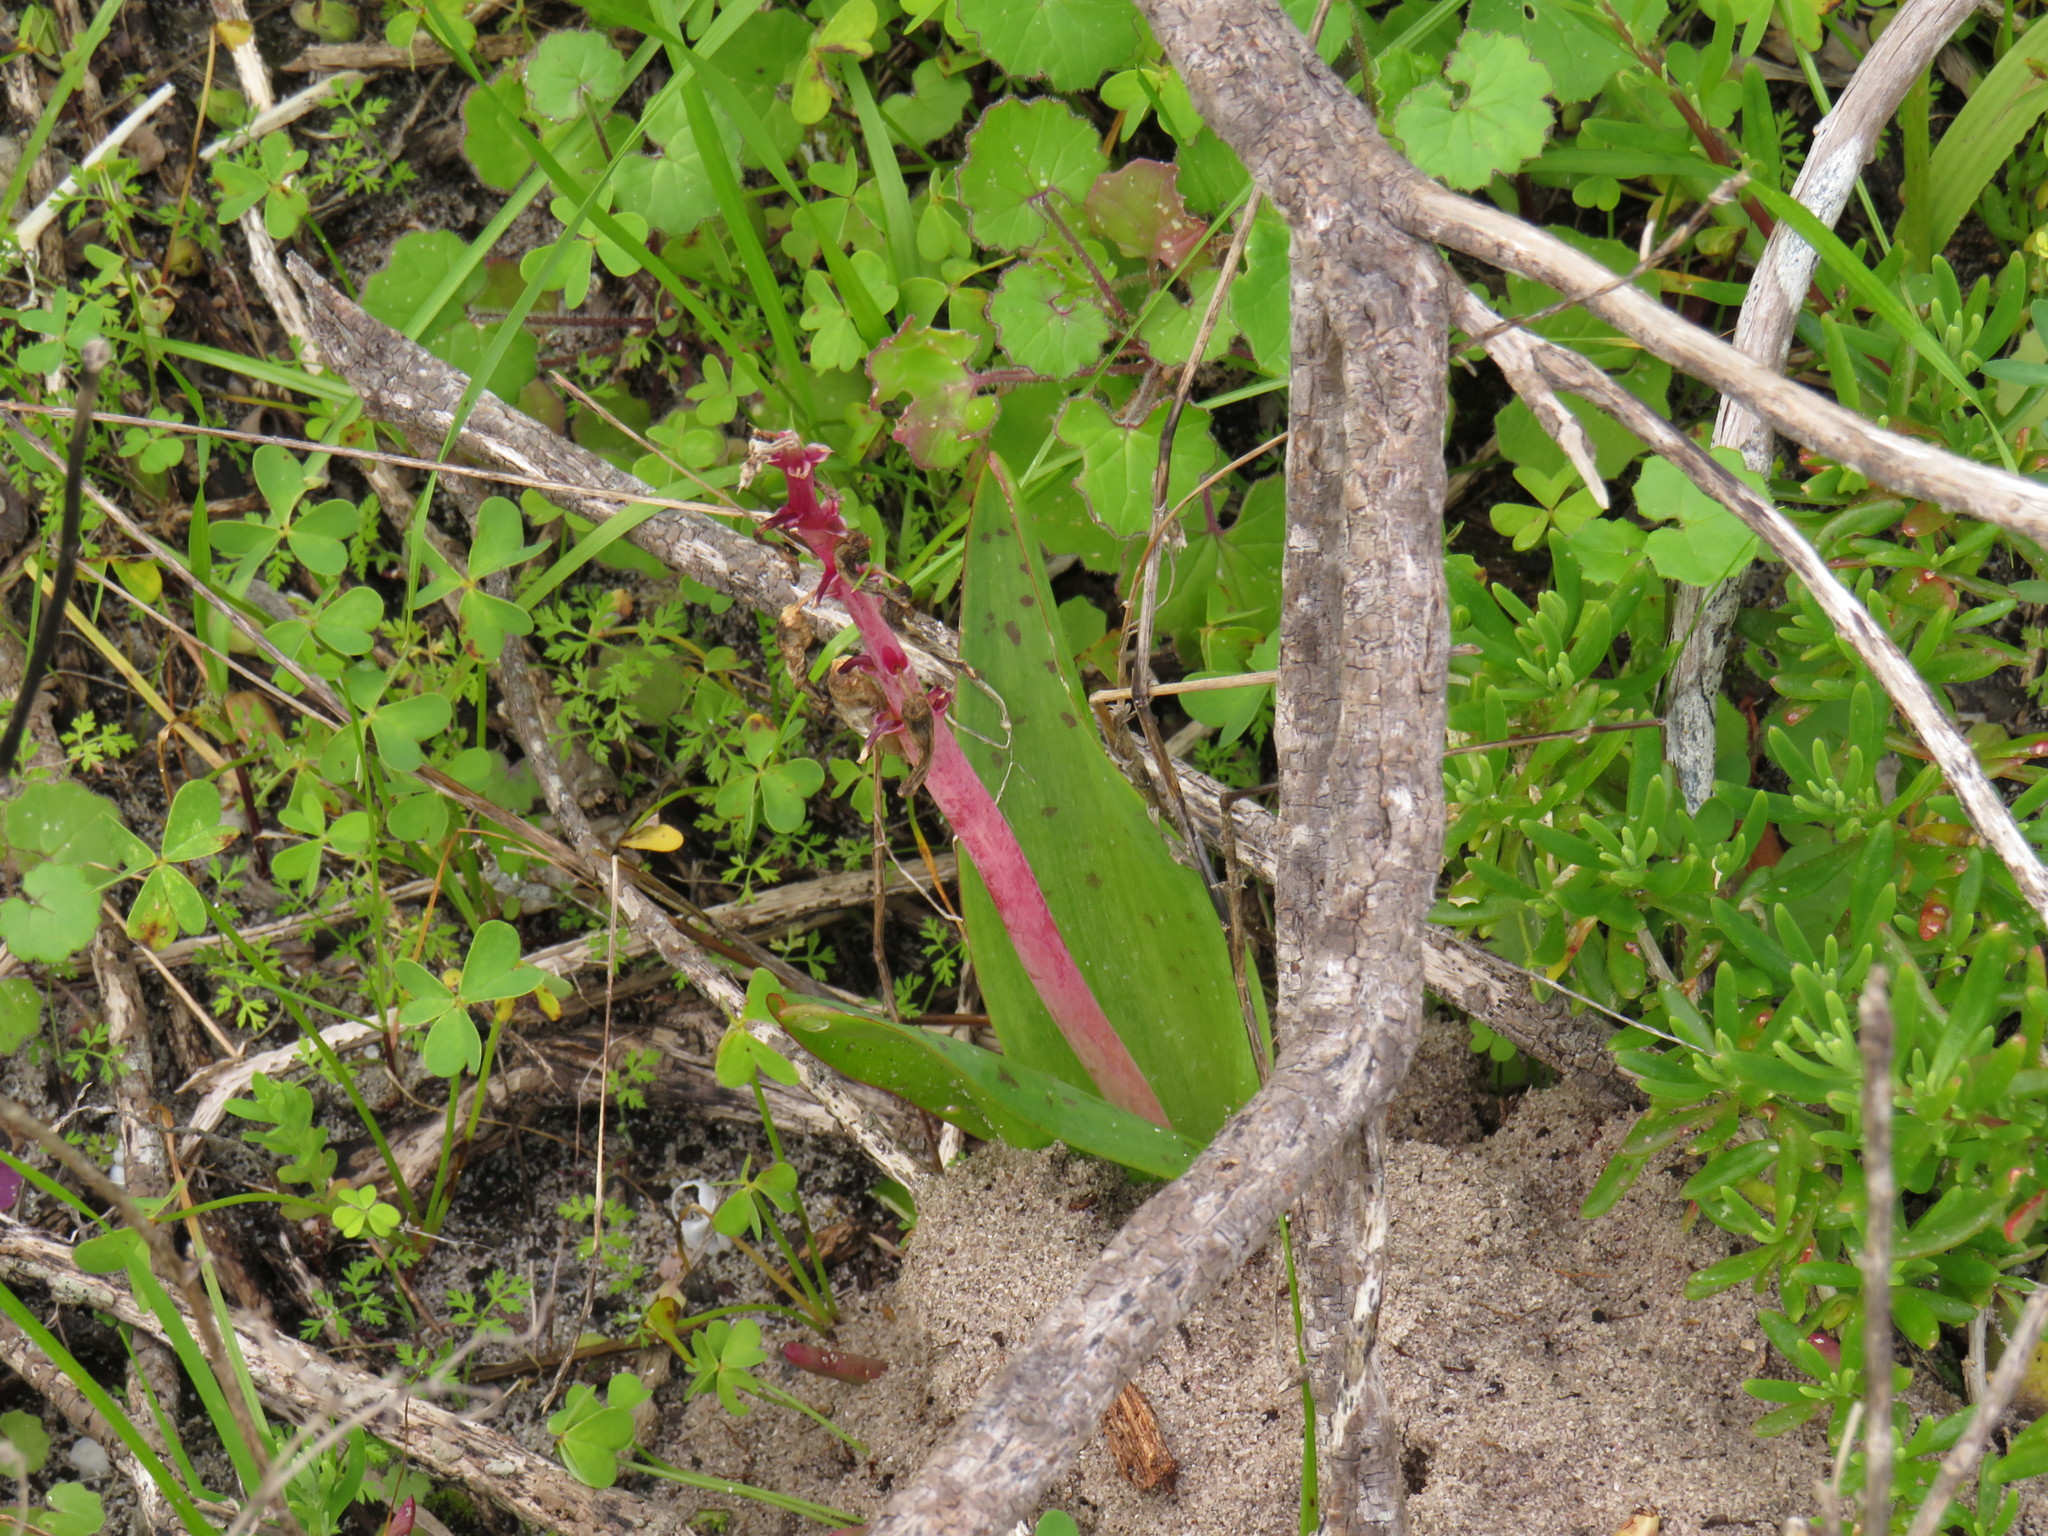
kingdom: Plantae
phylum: Tracheophyta
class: Liliopsida
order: Asparagales
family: Asparagaceae
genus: Lachenalia
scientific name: Lachenalia bulbifera
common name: Red lachenalia
